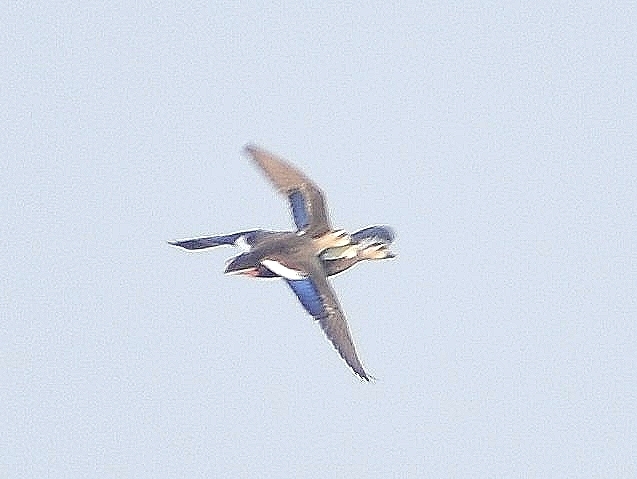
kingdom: Animalia
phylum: Chordata
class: Aves
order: Anseriformes
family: Anatidae
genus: Anas
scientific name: Anas zonorhyncha
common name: Eastern spot-billed duck
